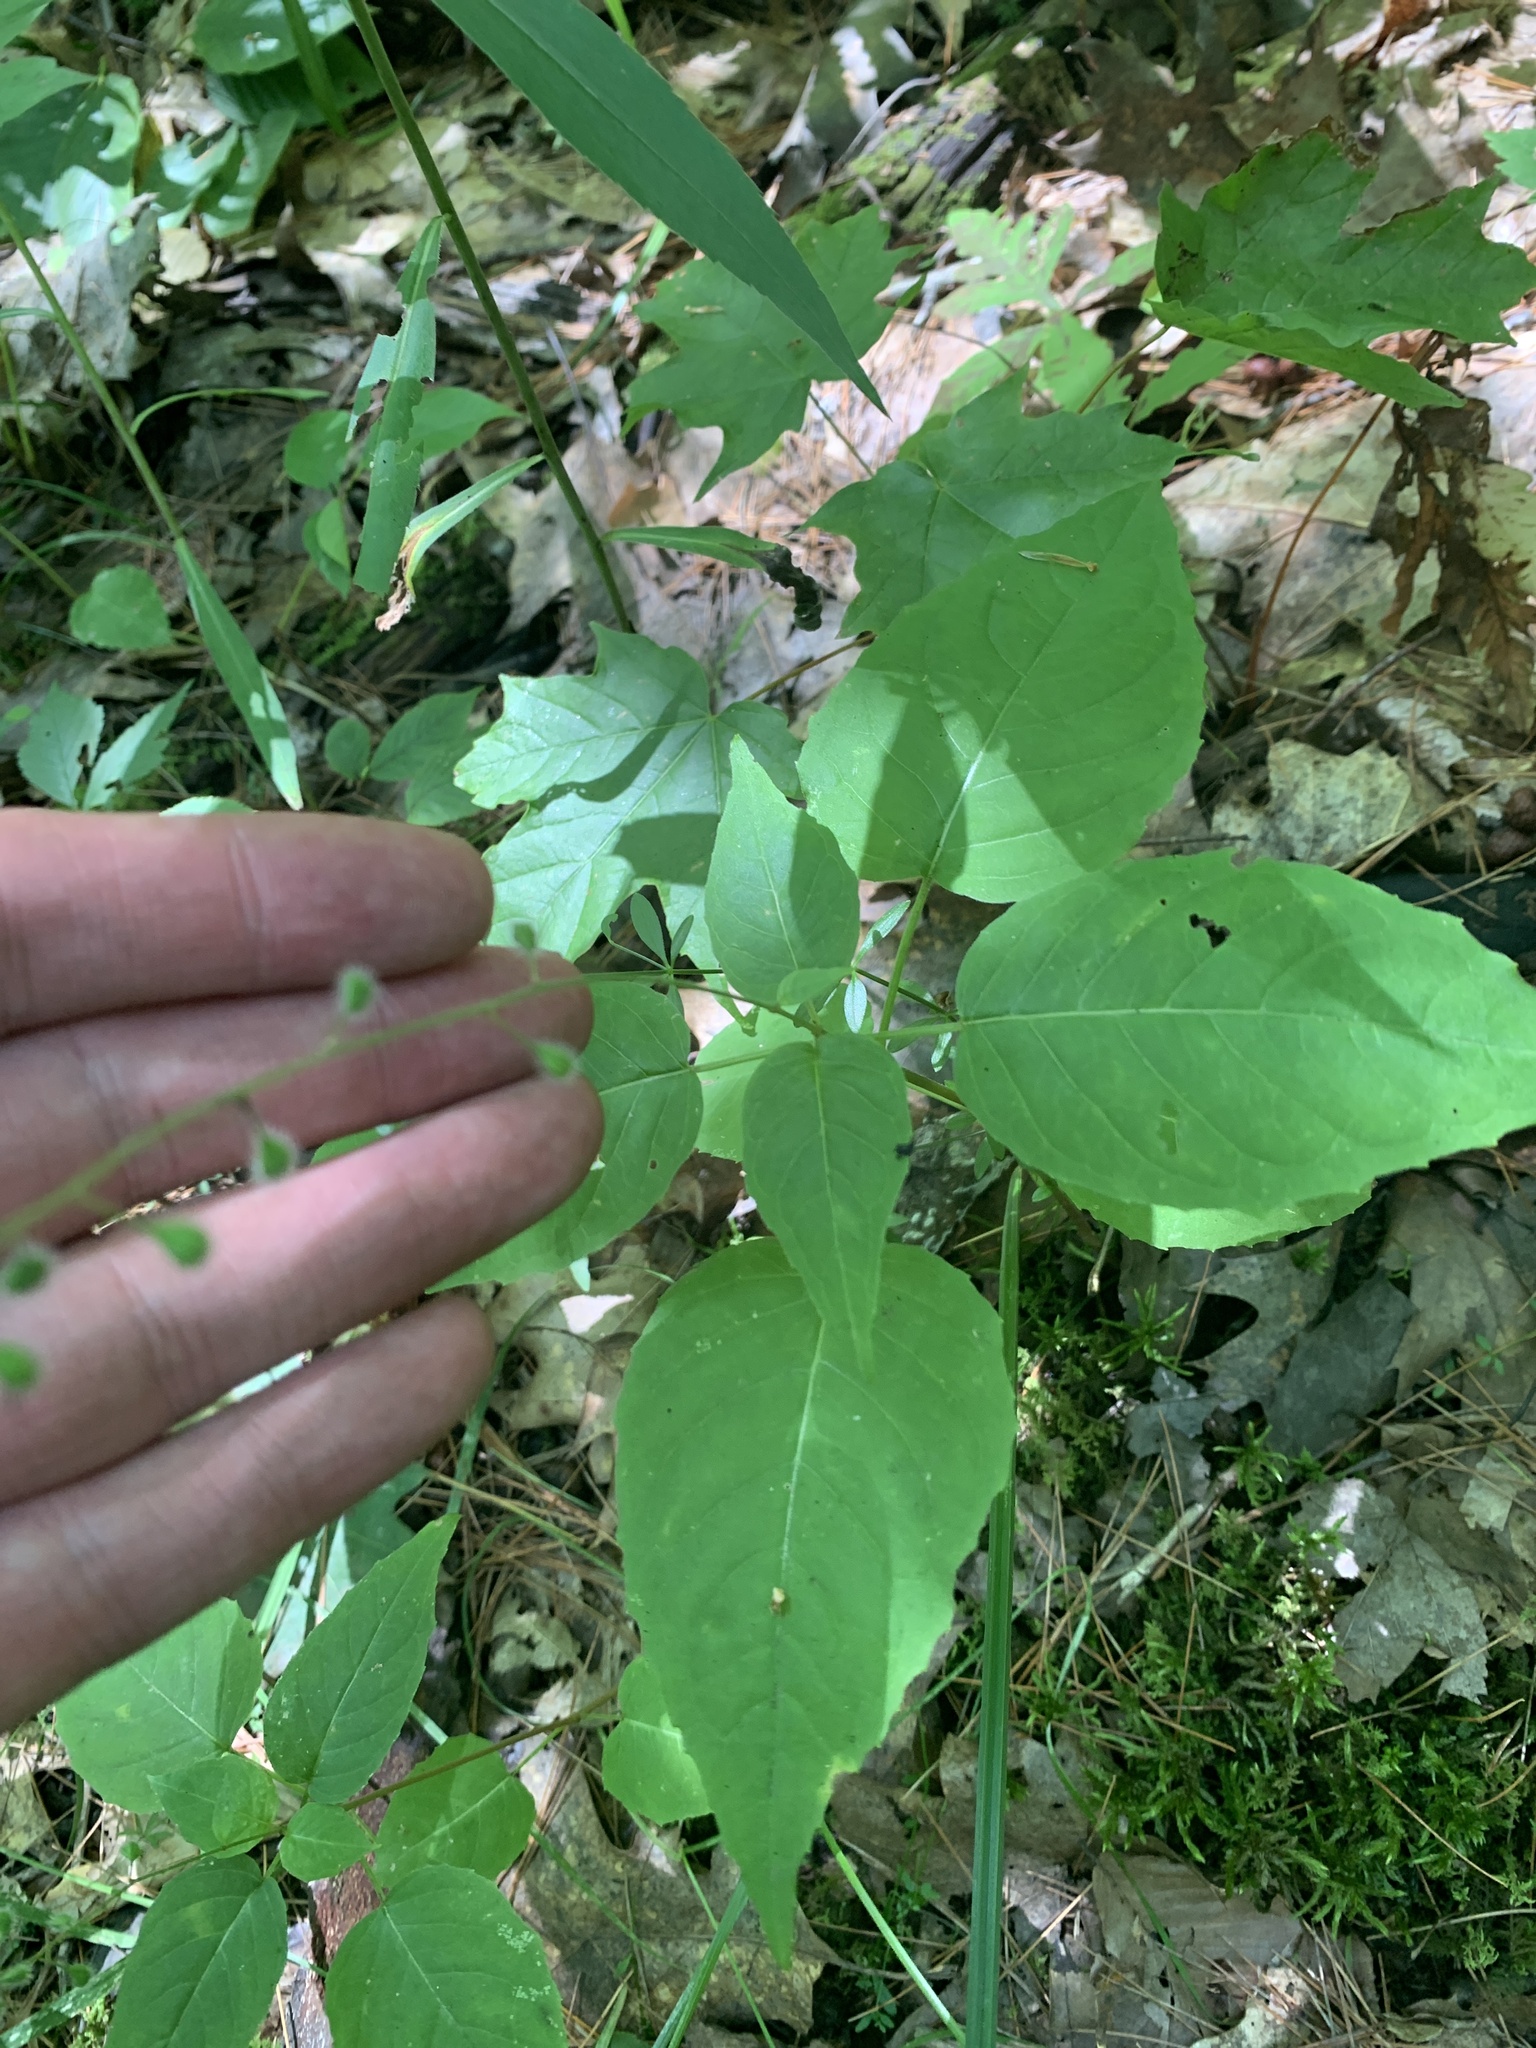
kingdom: Plantae
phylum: Tracheophyta
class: Magnoliopsida
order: Myrtales
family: Onagraceae
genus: Circaea
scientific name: Circaea canadensis
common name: Broad-leaved enchanter's nightshade
